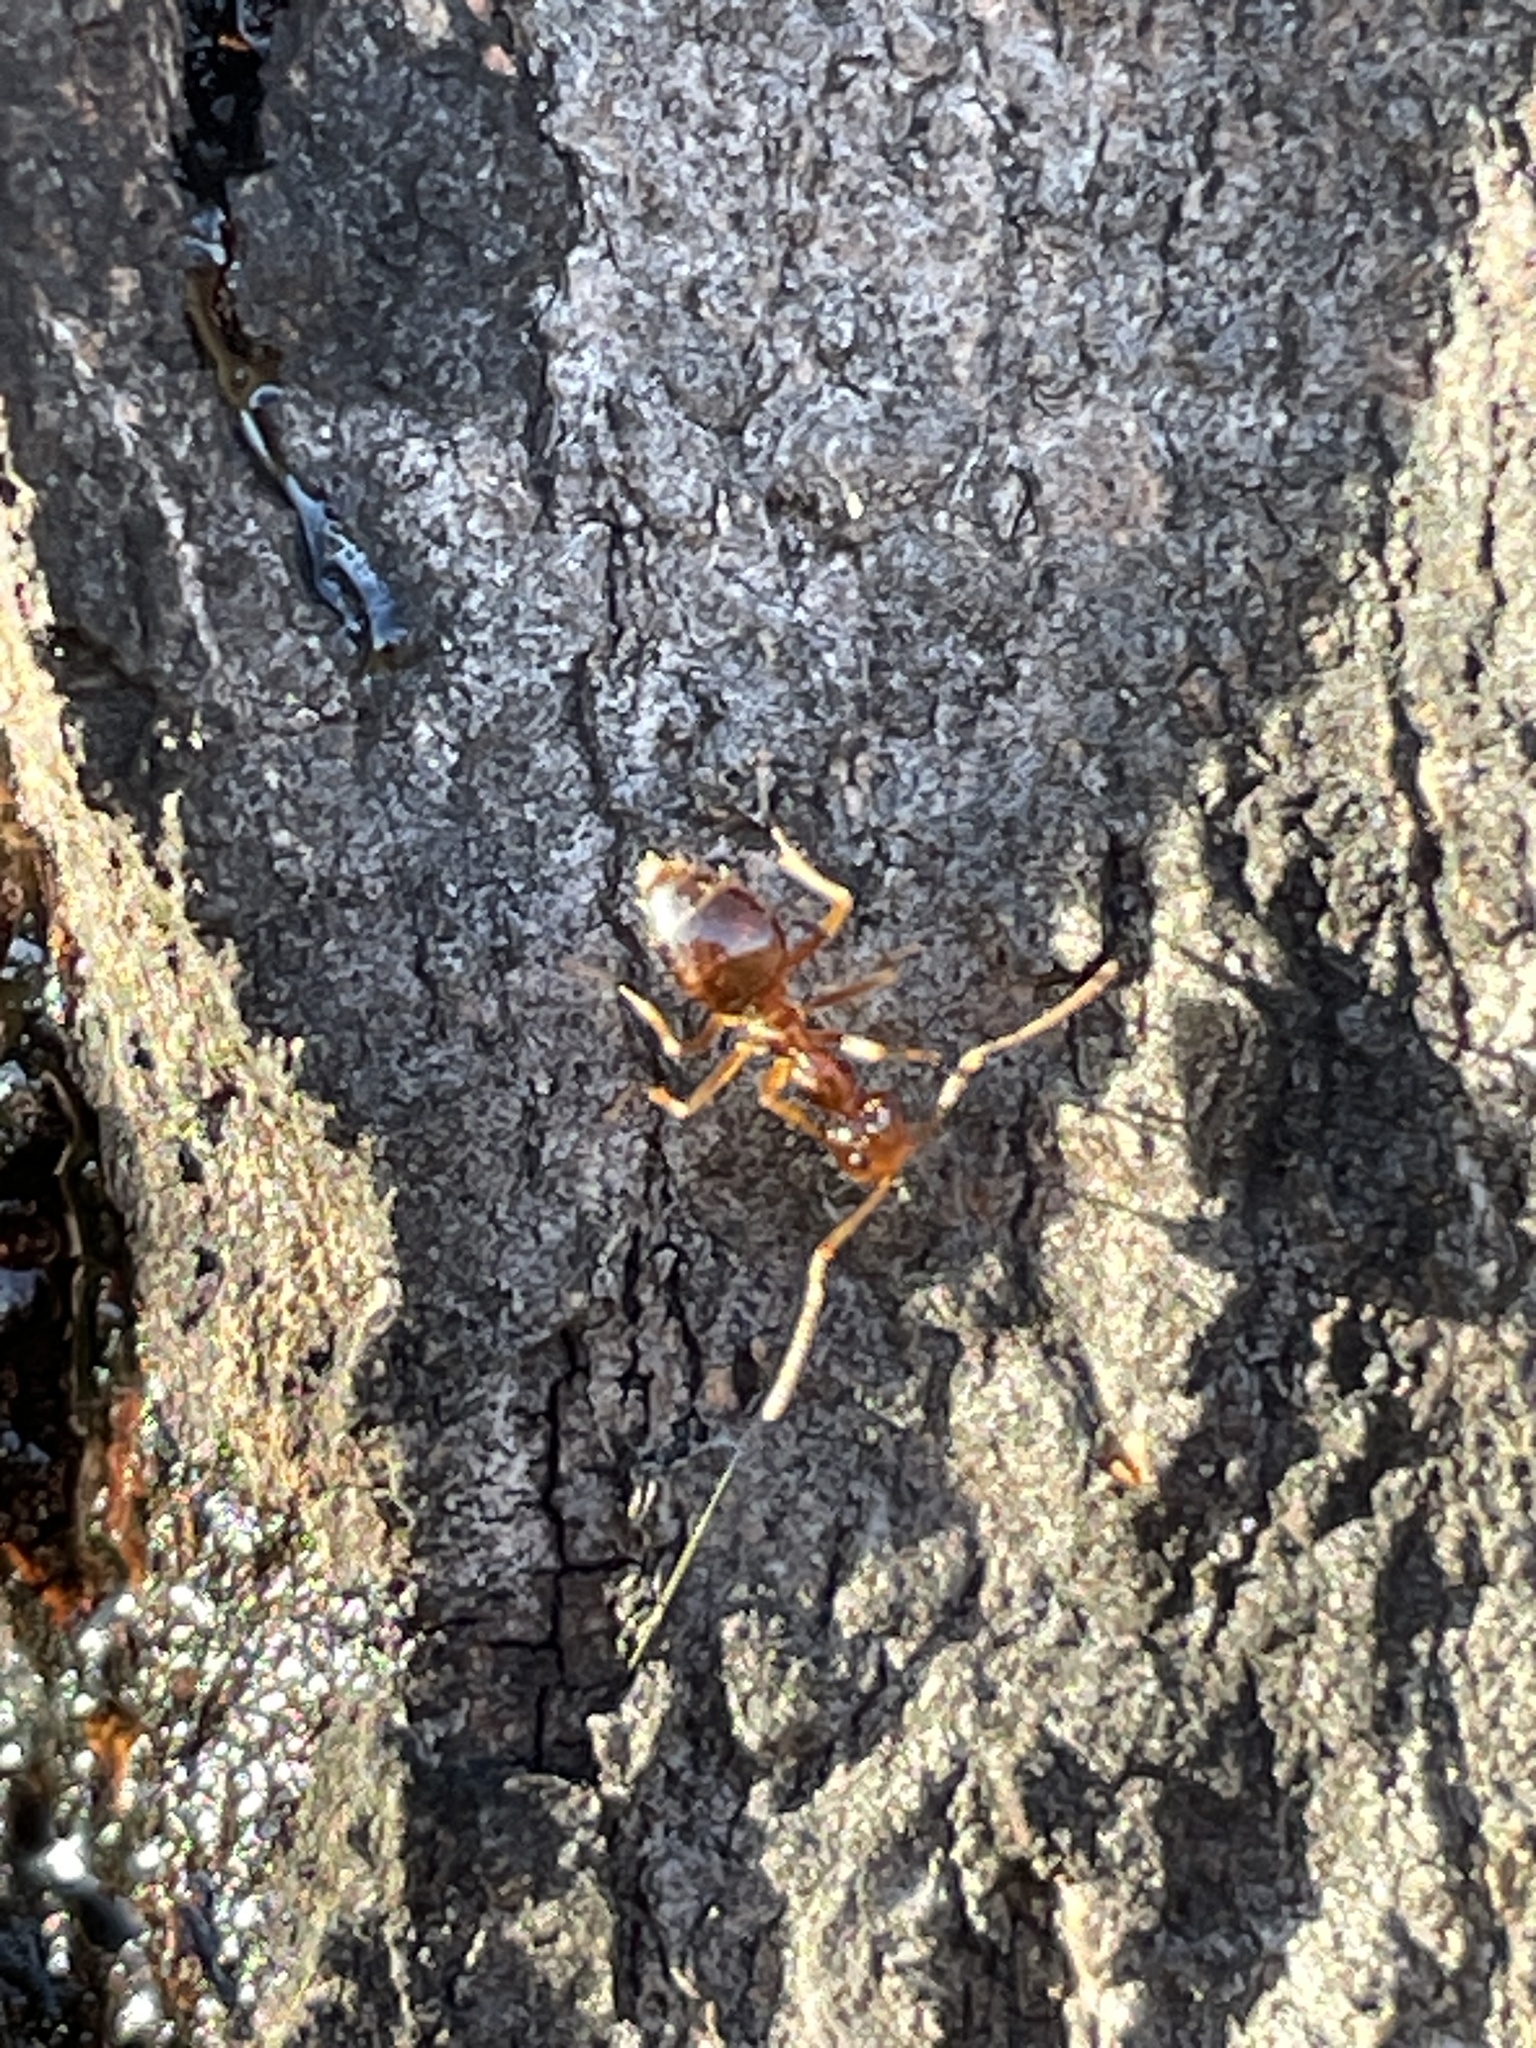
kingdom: Animalia
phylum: Arthropoda
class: Insecta
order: Hymenoptera
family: Formicidae
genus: Prenolepis
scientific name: Prenolepis imparis
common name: Small honey ant
